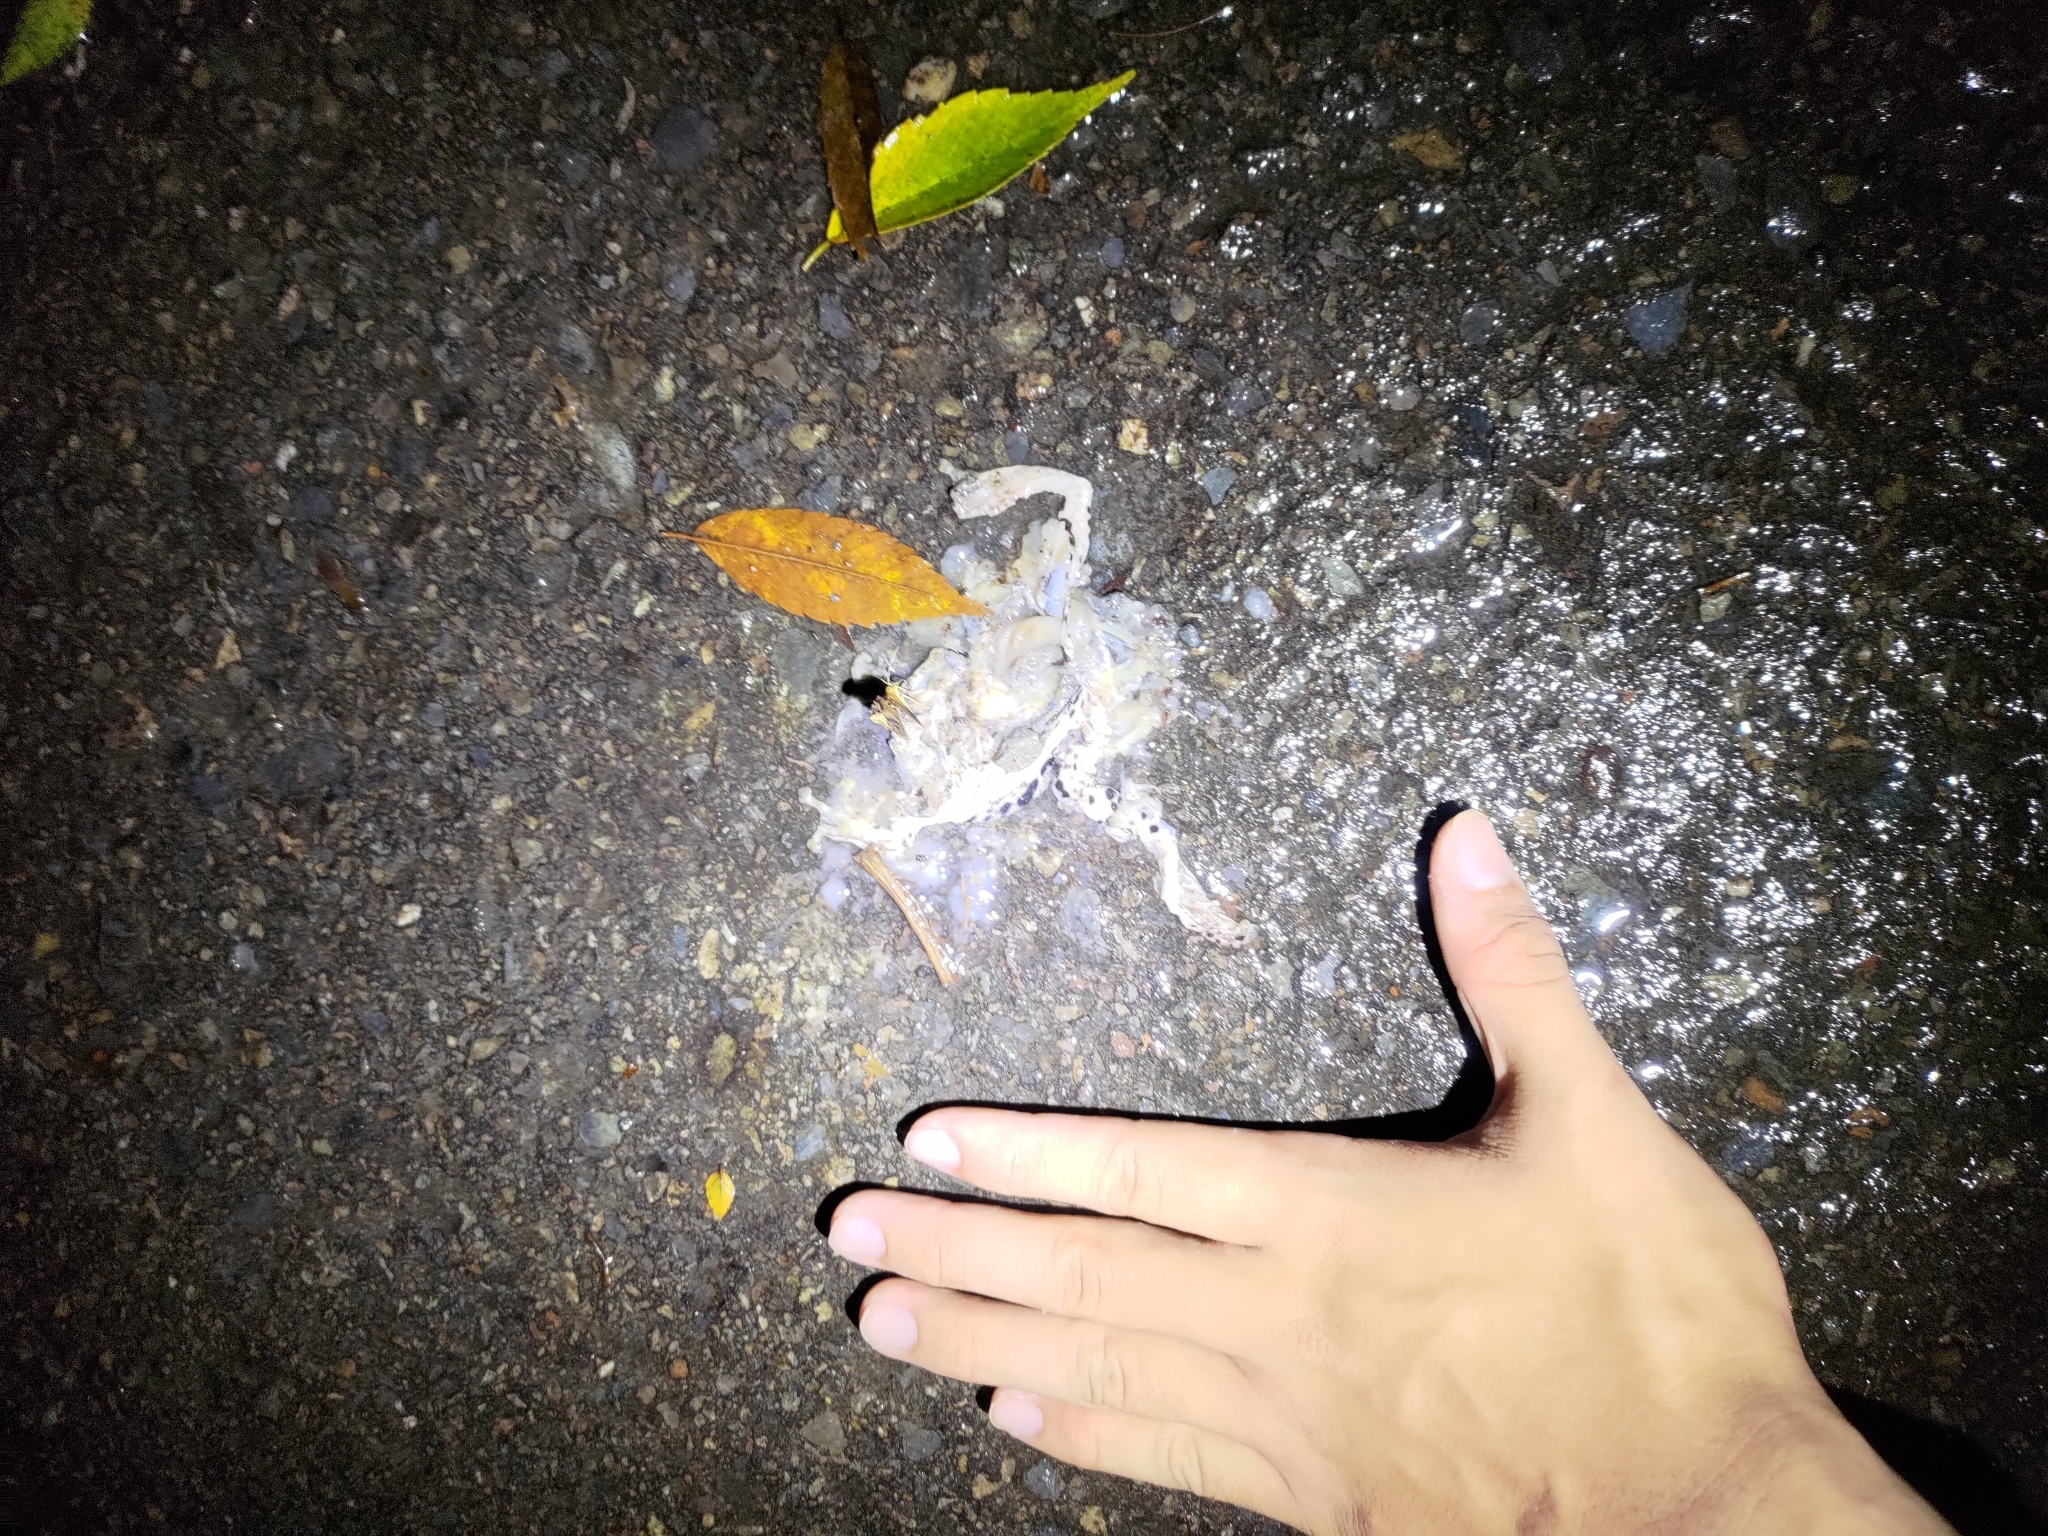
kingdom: Animalia
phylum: Chordata
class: Amphibia
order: Anura
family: Rhacophoridae
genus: Zhangixalus
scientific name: Zhangixalus moltrechti
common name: Moltrecht's treefrog
